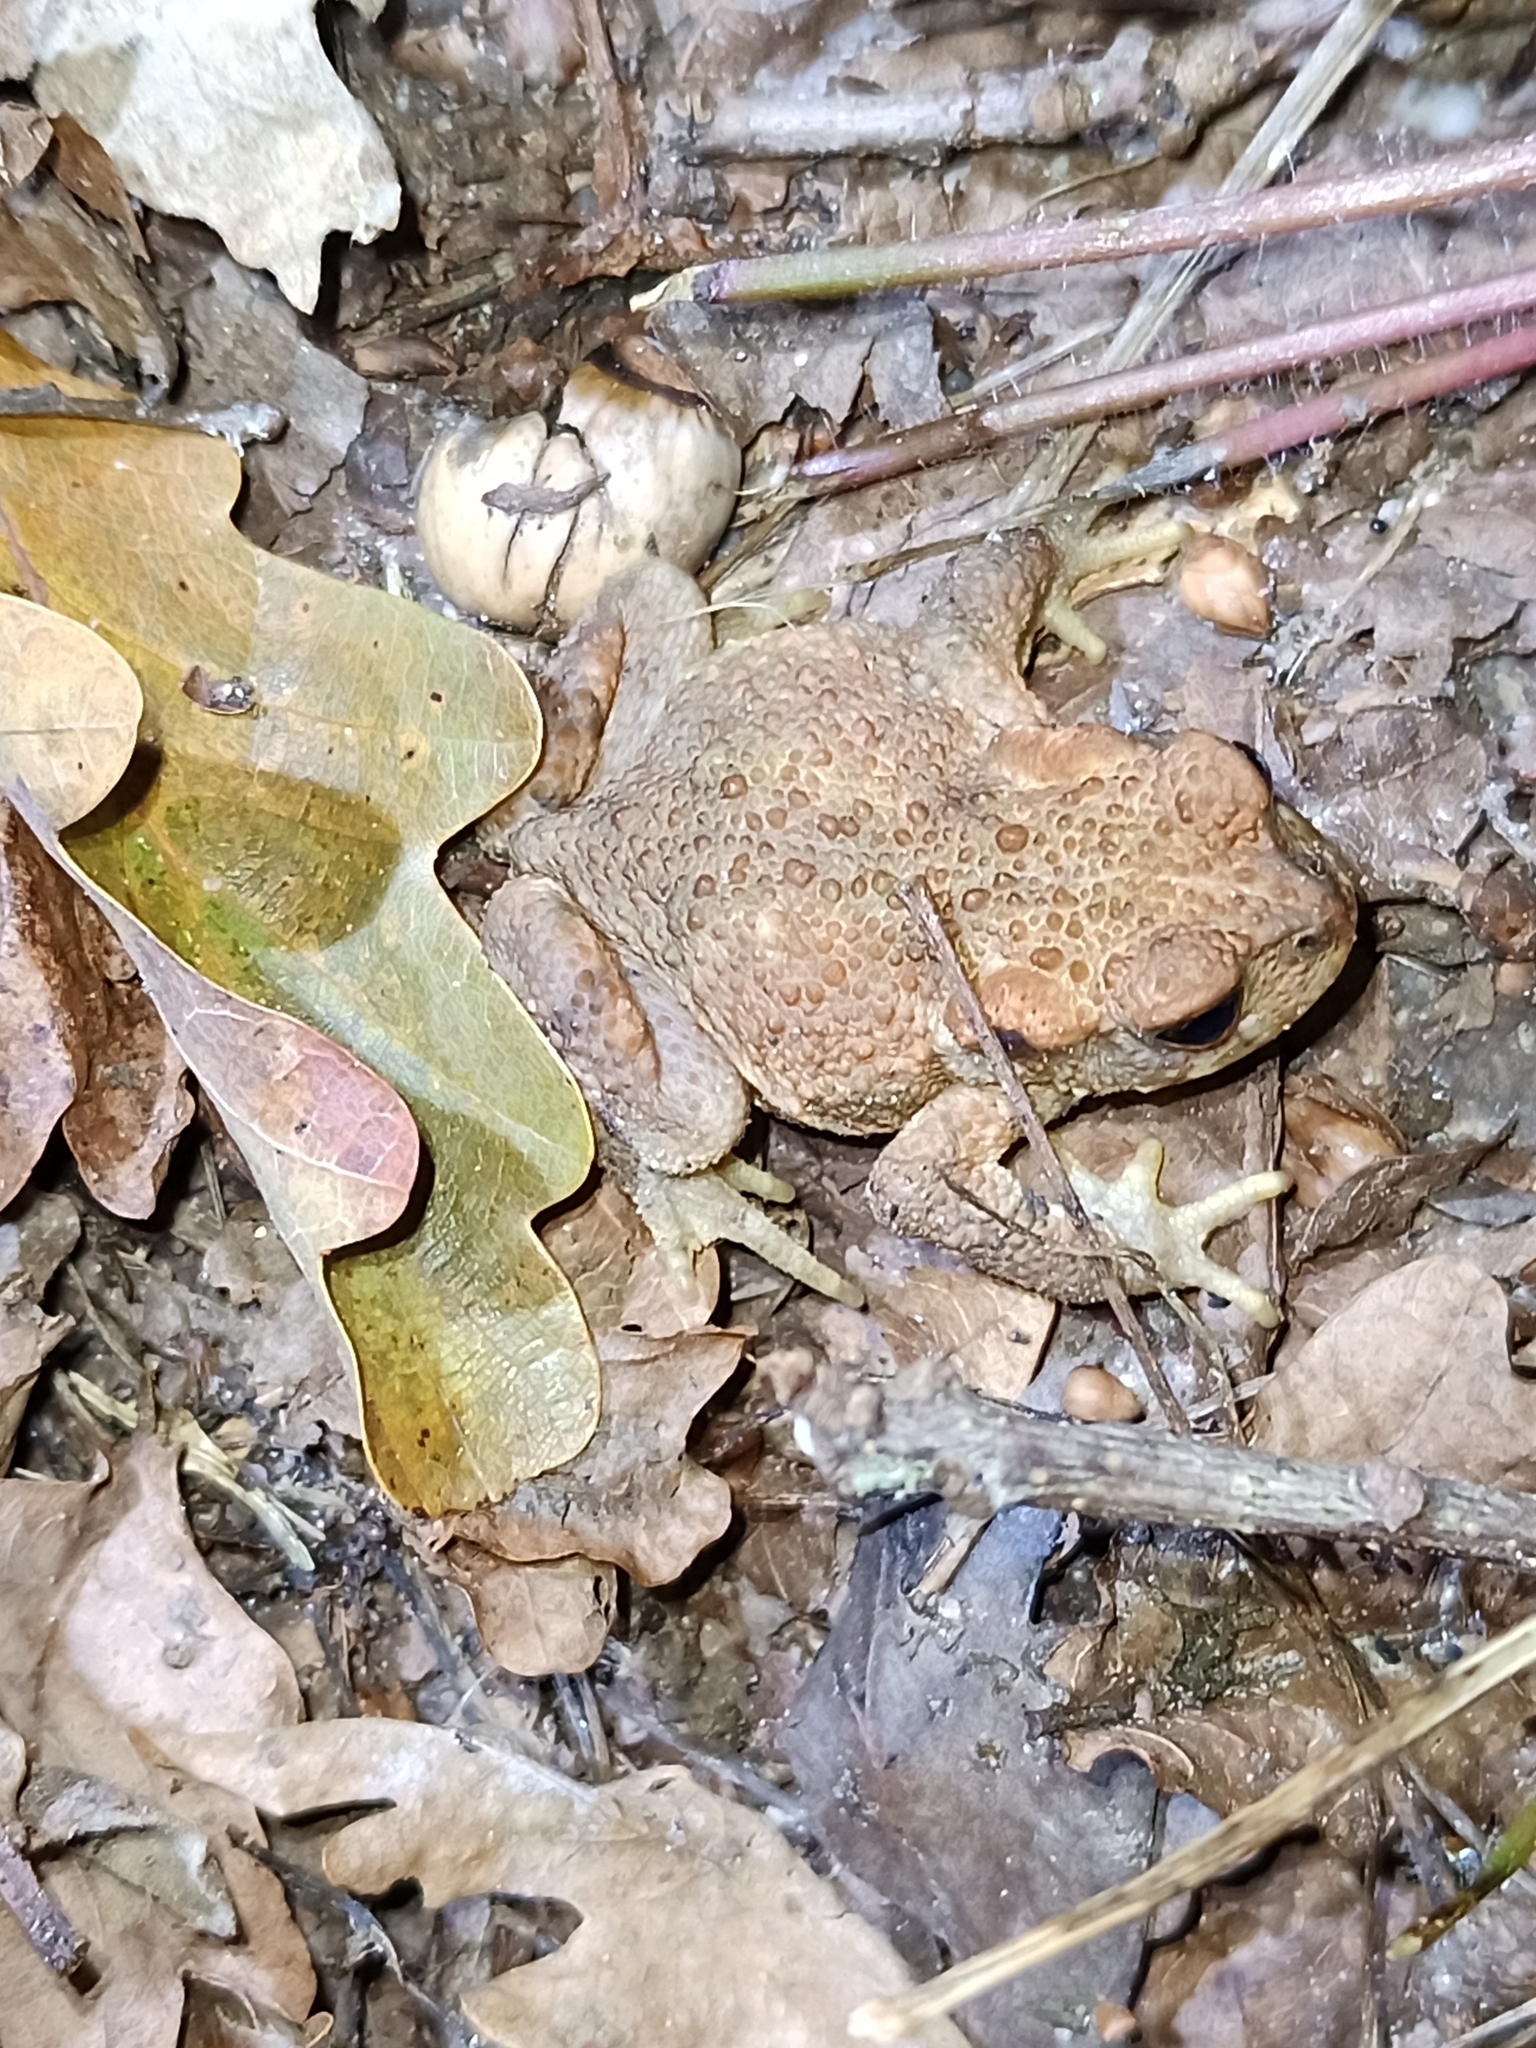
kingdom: Animalia
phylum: Chordata
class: Amphibia
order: Anura
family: Bufonidae
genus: Bufo
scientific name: Bufo spinosus
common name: Western common toad
